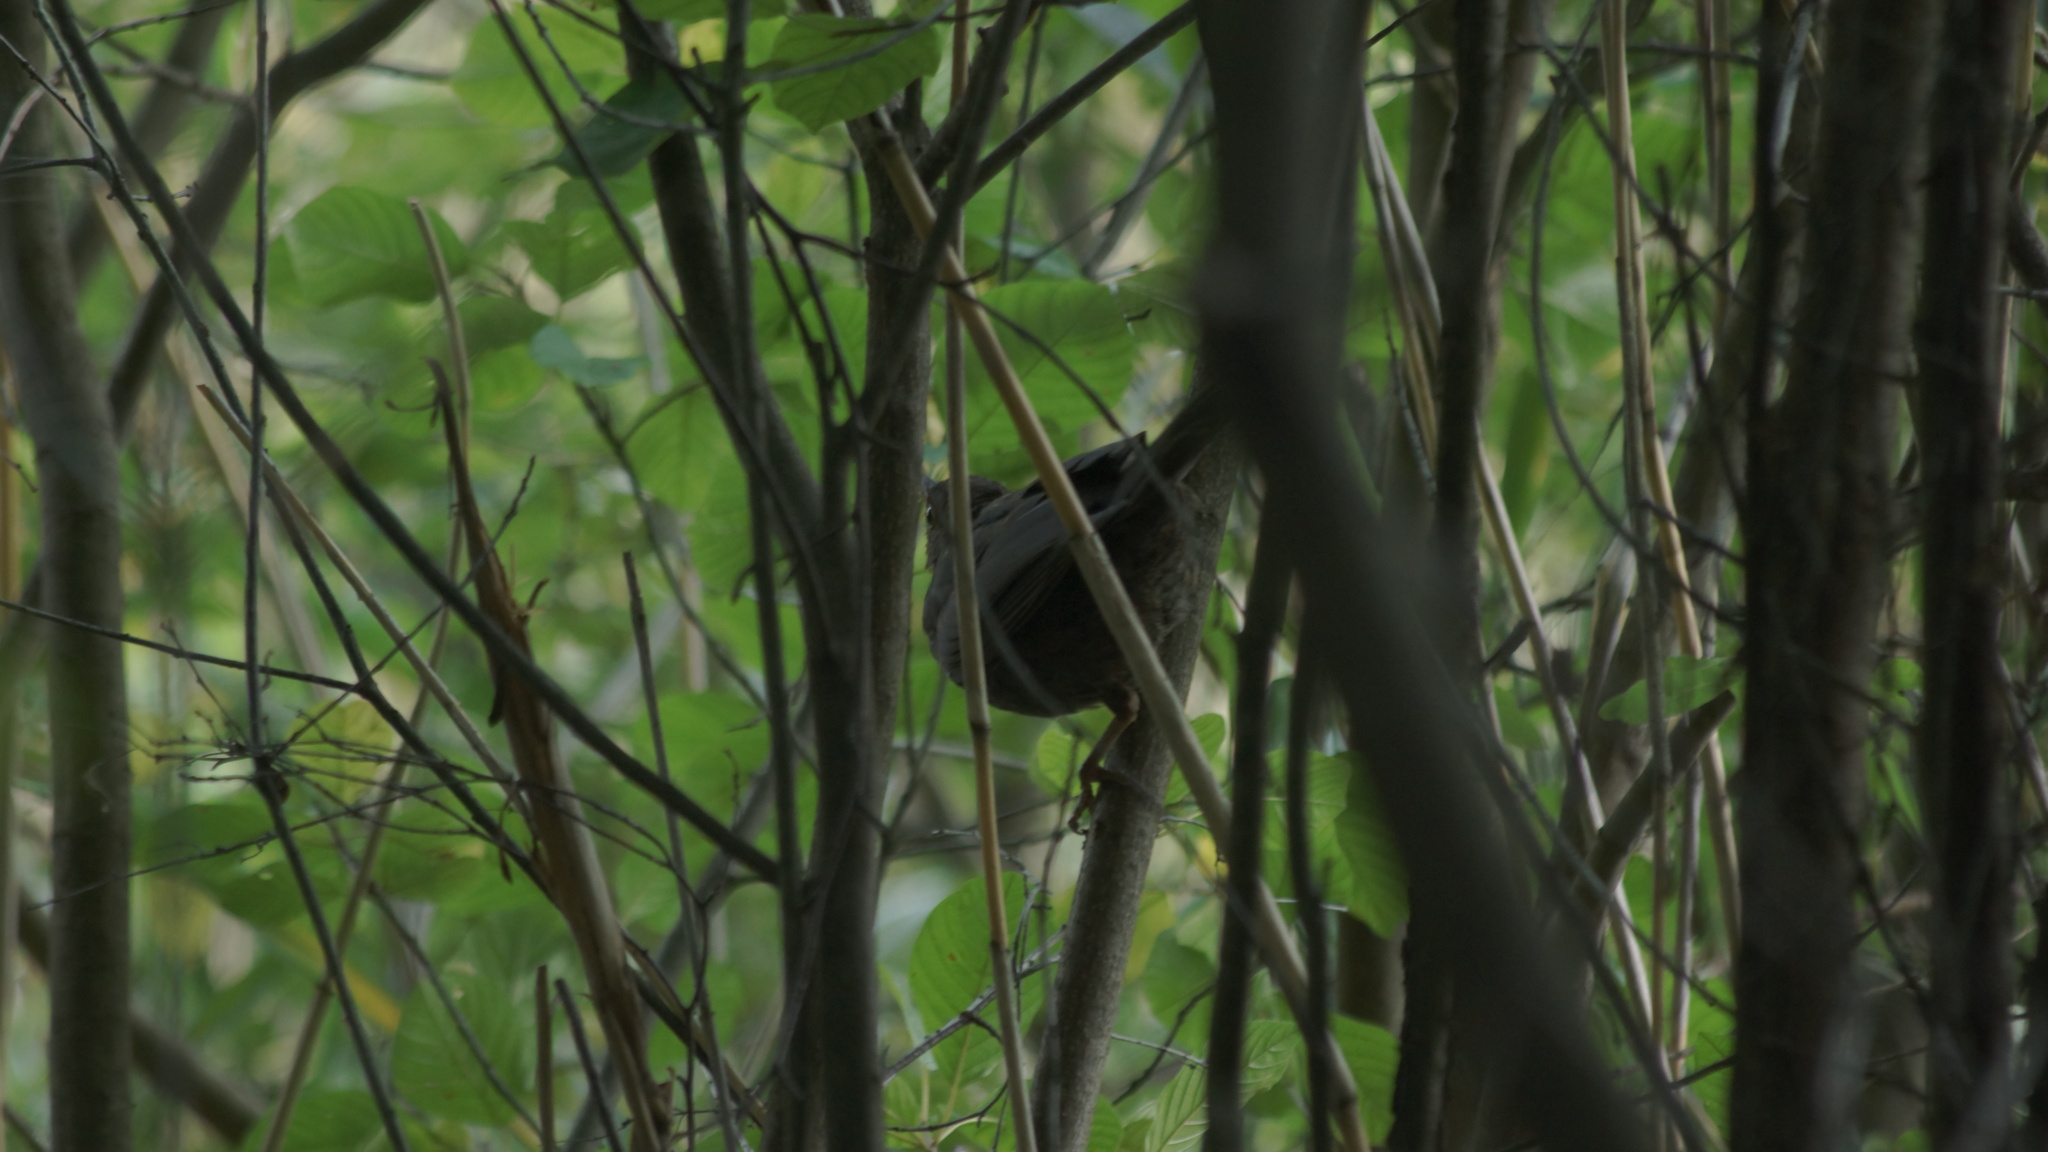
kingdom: Animalia
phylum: Chordata
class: Aves
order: Passeriformes
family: Turdidae
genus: Turdus
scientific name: Turdus merula
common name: Common blackbird
